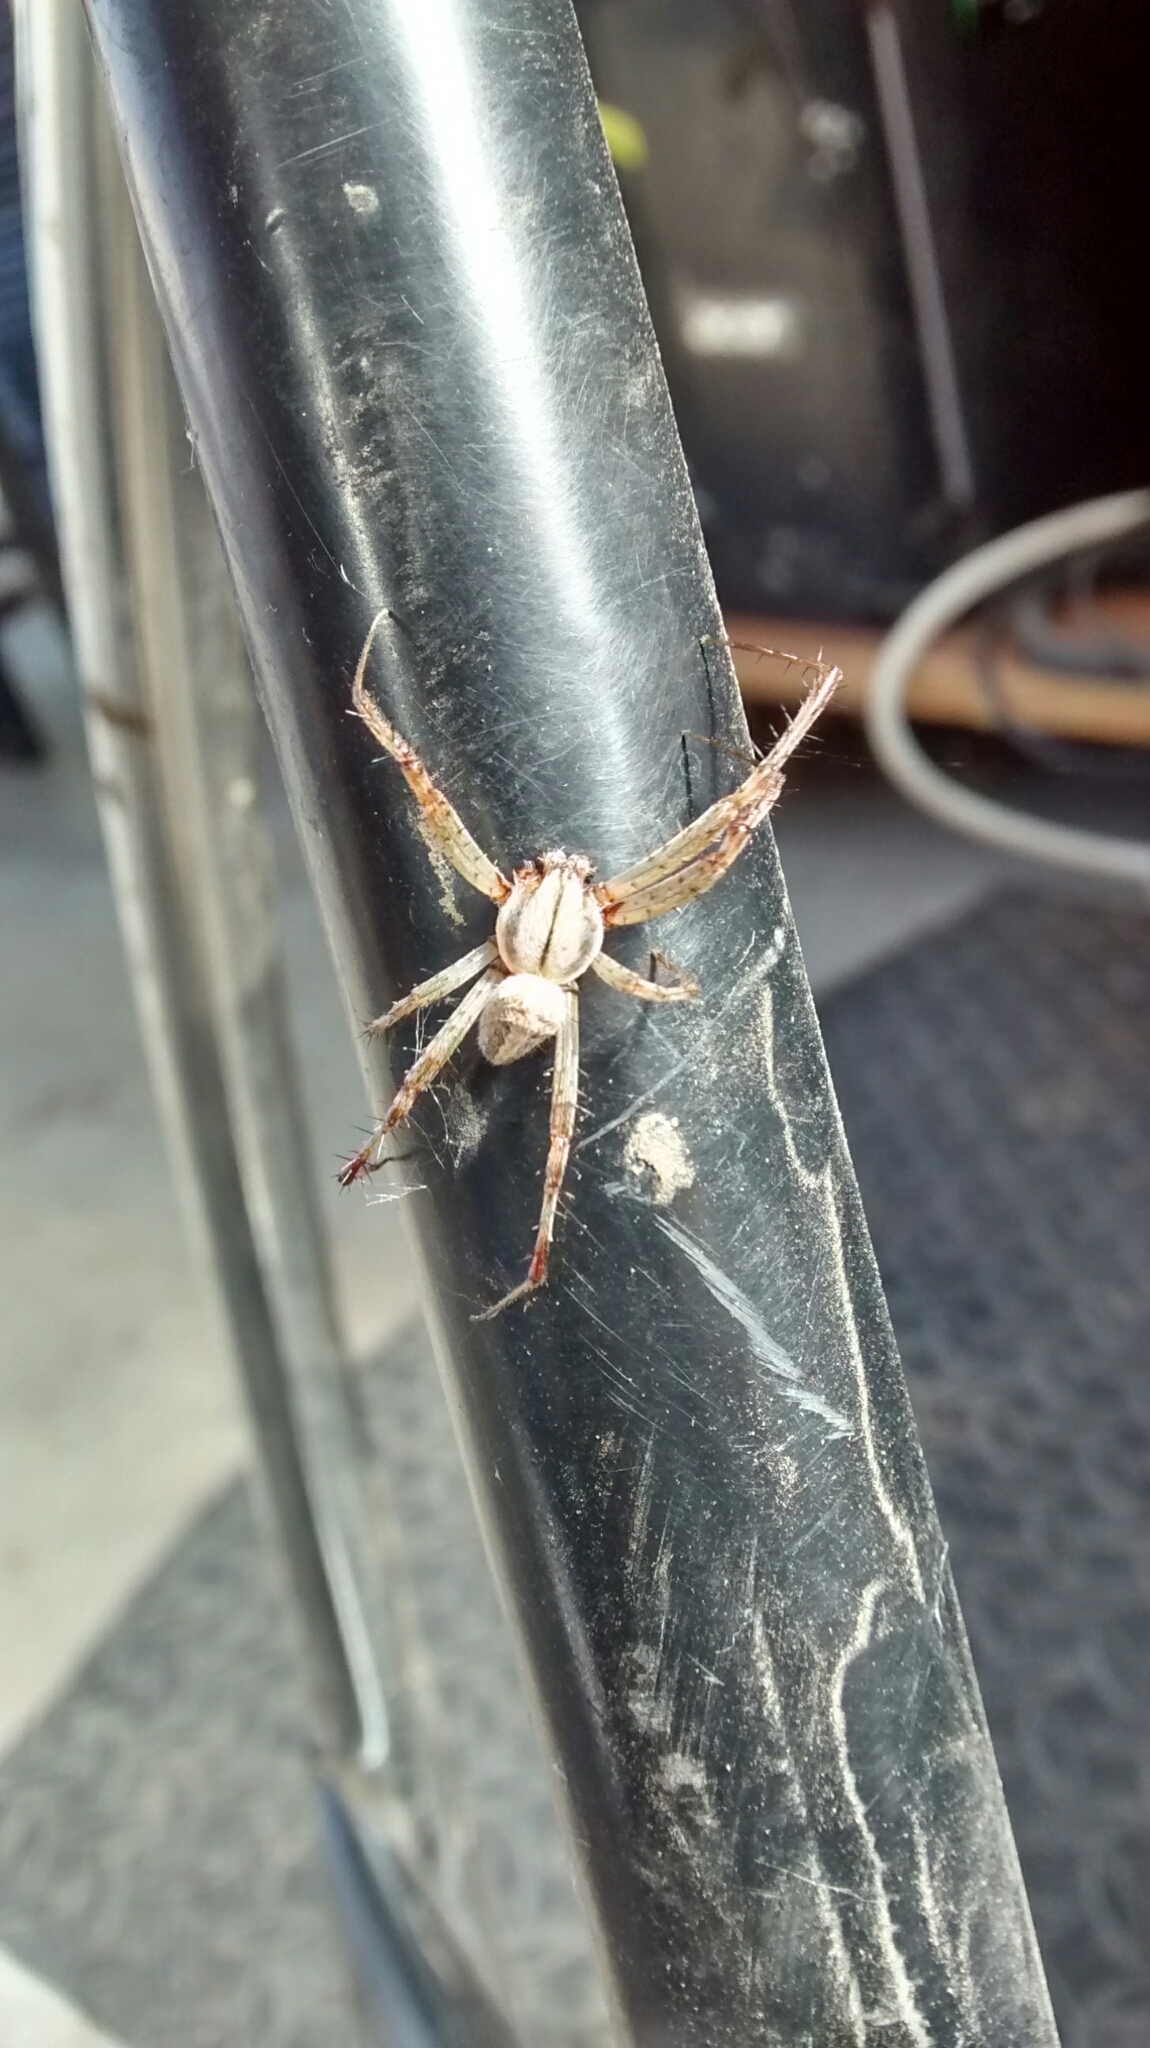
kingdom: Animalia
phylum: Arthropoda
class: Arachnida
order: Araneae
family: Araneidae
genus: Neoscona
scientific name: Neoscona oaxacensis
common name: Orb weavers
